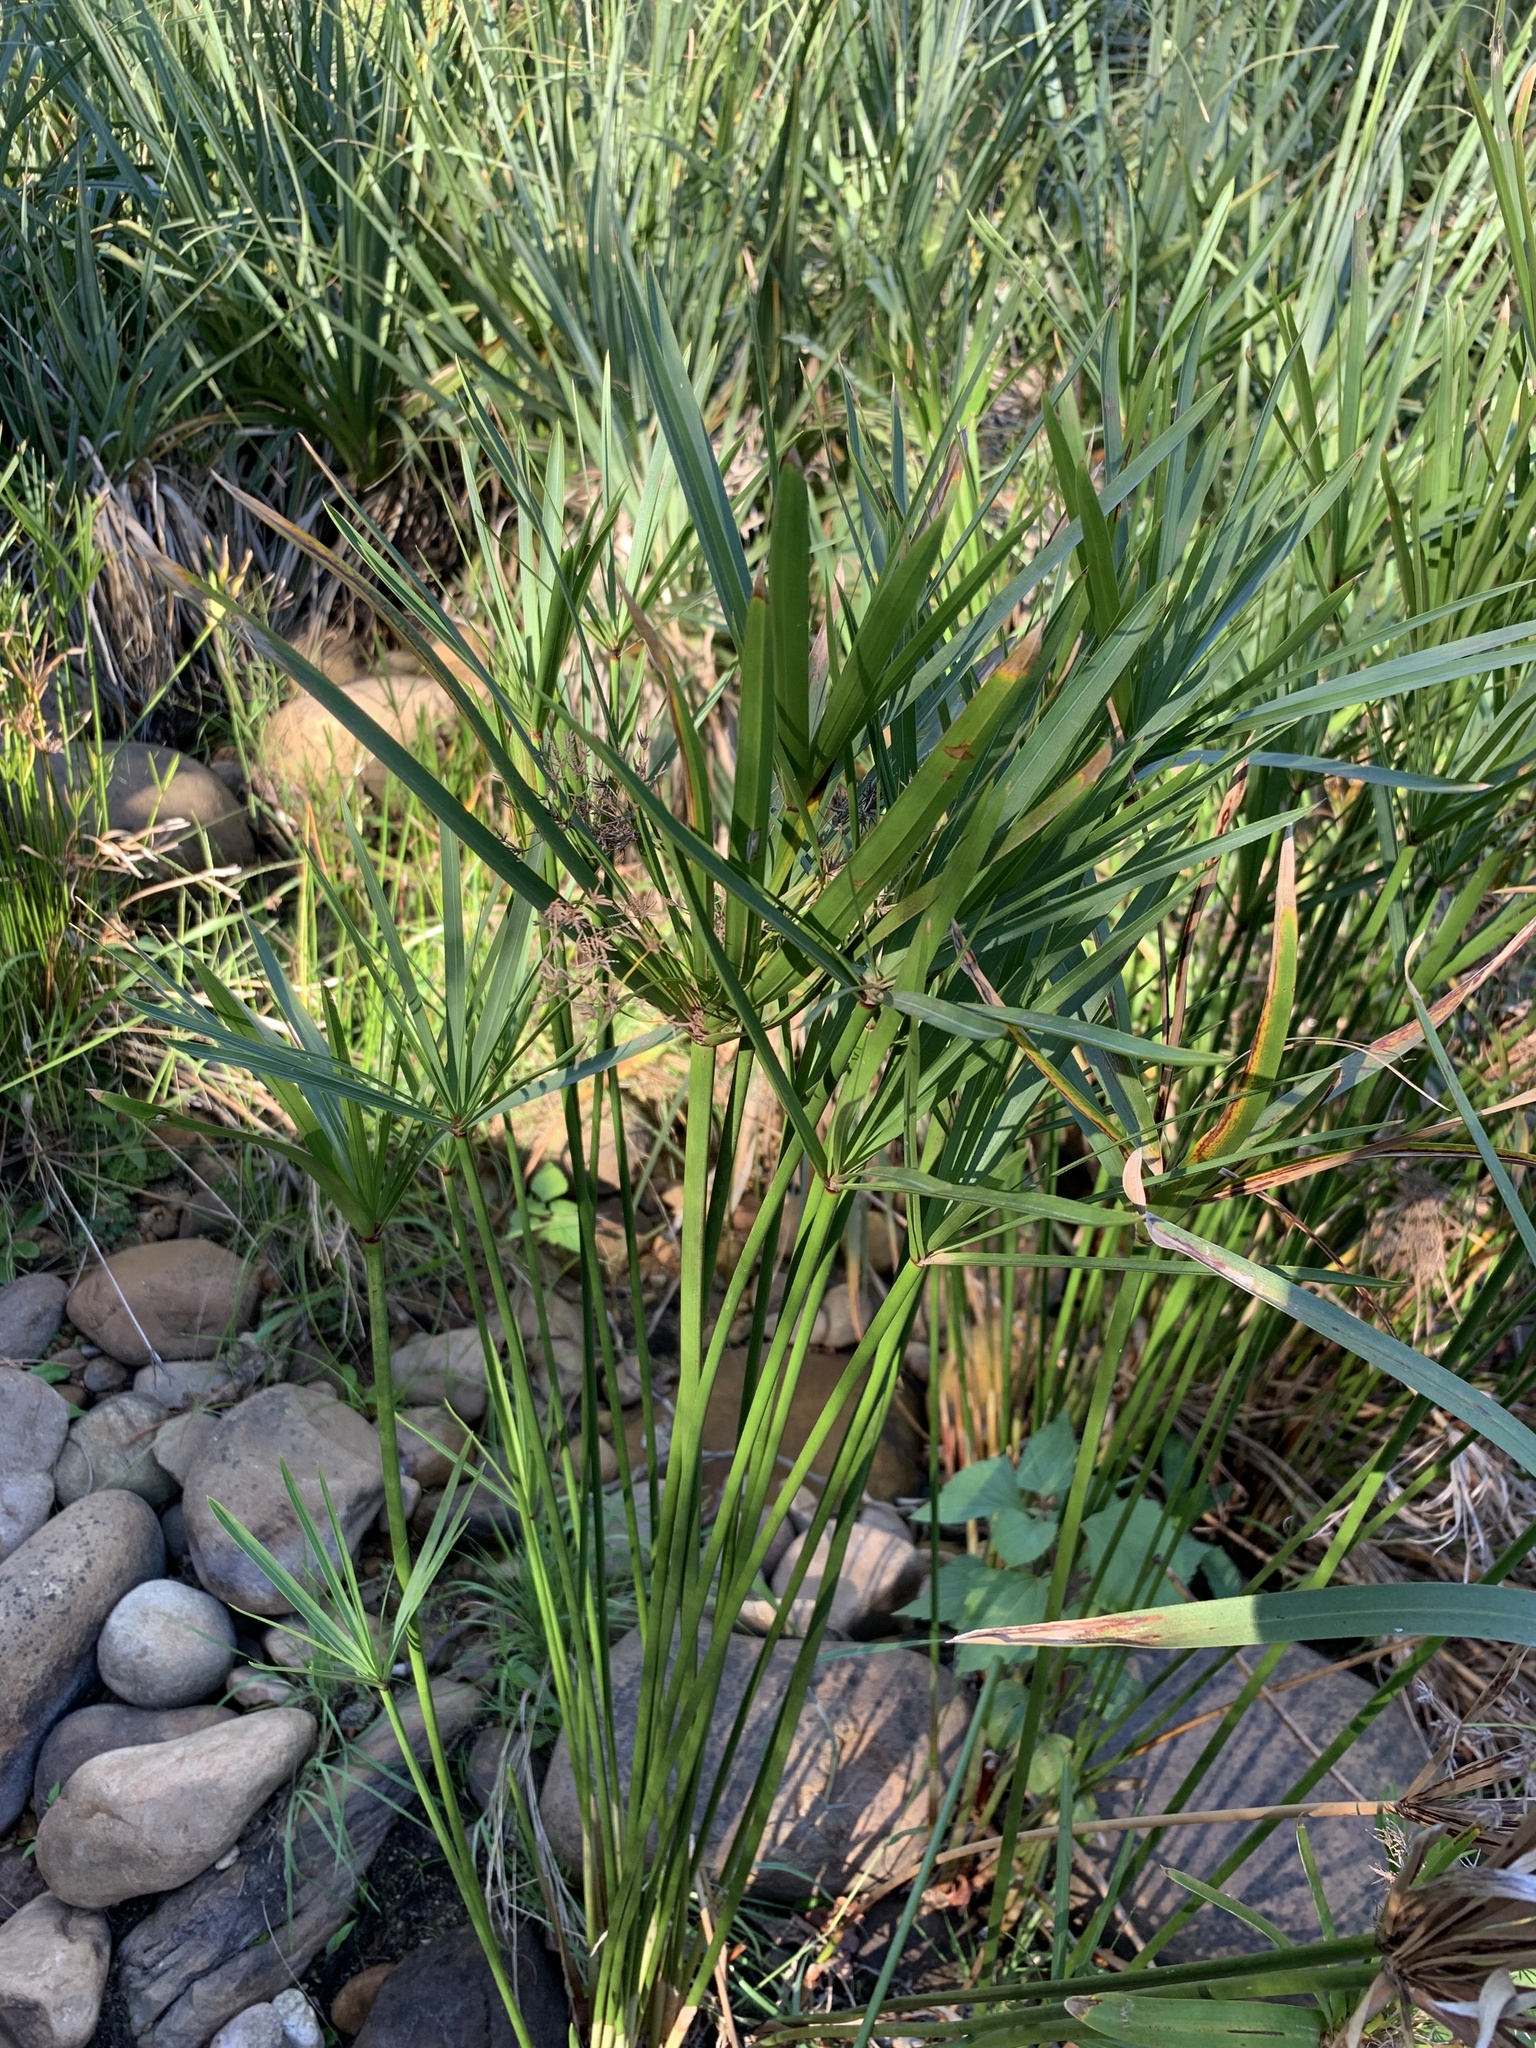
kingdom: Plantae
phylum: Tracheophyta
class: Liliopsida
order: Poales
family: Cyperaceae
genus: Cyperus
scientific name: Cyperus textilis
